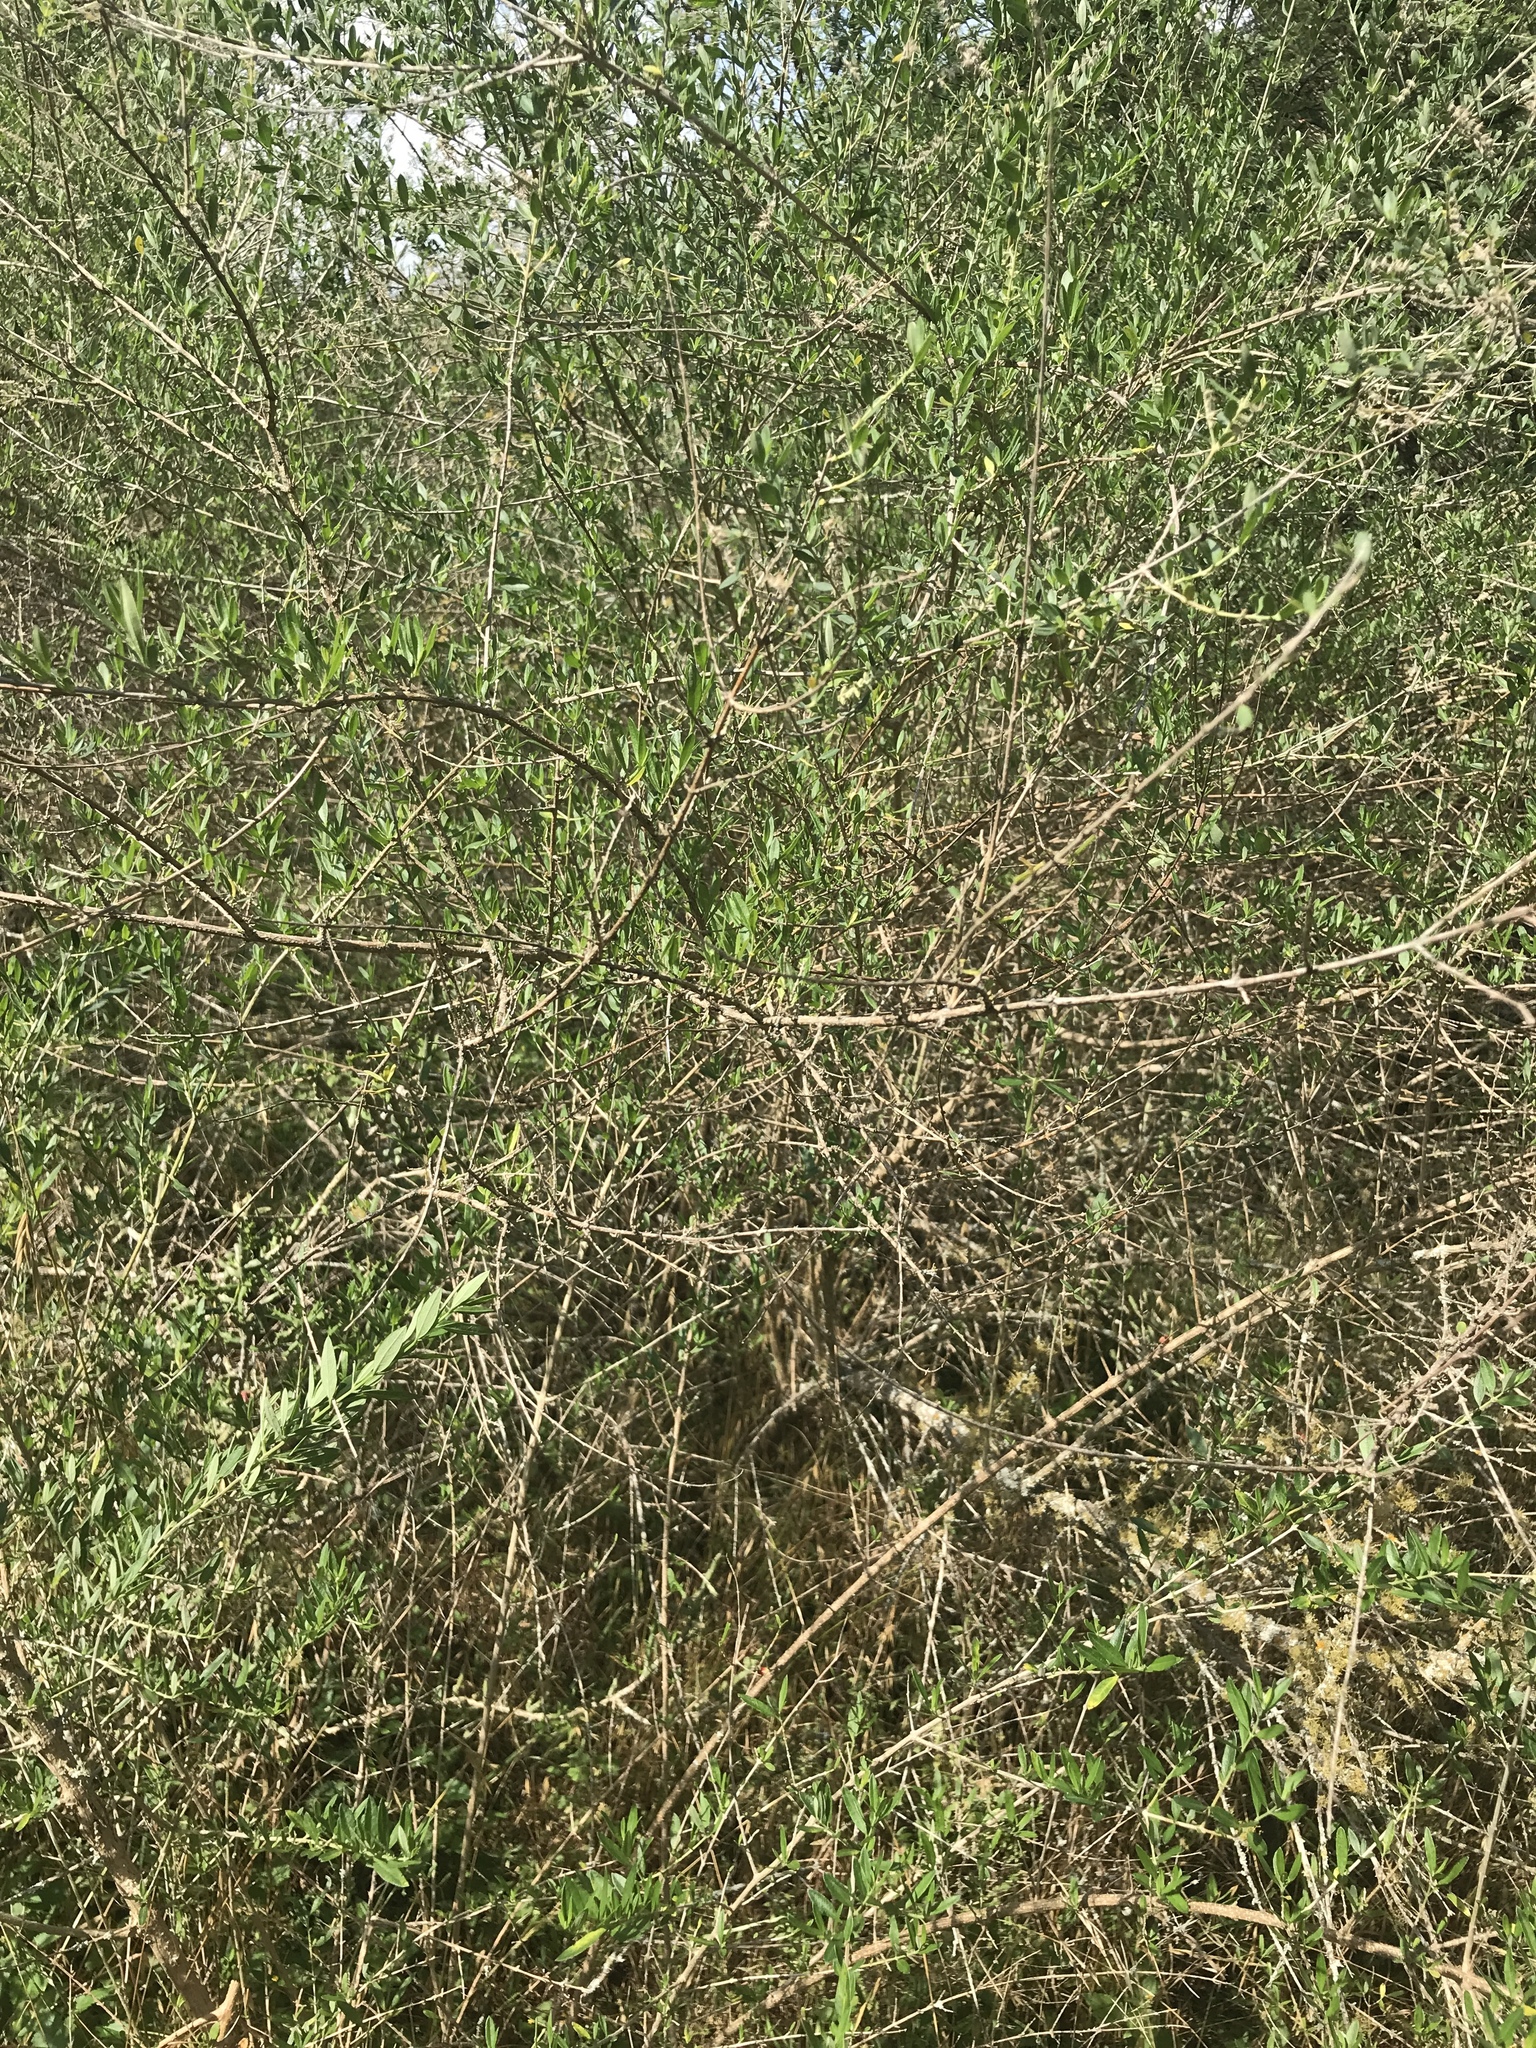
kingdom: Plantae
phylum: Tracheophyta
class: Magnoliopsida
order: Lamiales
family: Verbenaceae
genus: Aloysia
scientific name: Aloysia gratissima
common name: Common bee-brush
